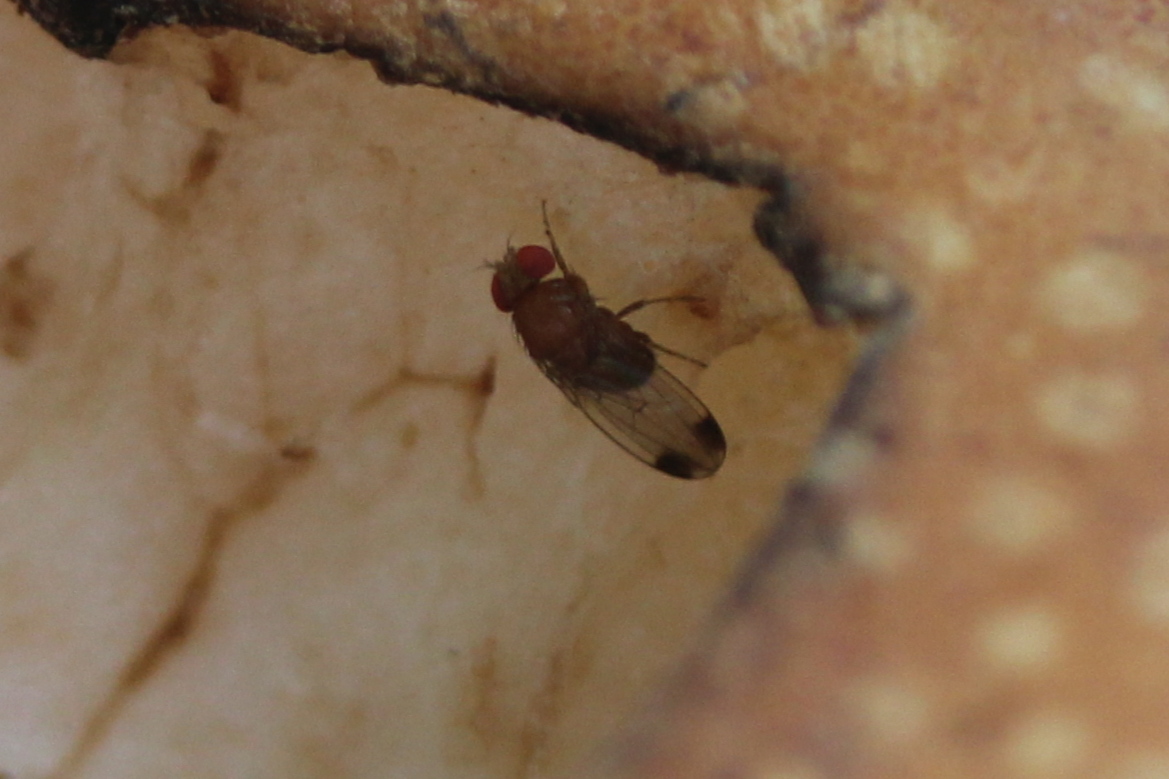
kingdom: Animalia
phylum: Arthropoda
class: Insecta
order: Diptera
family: Drosophilidae
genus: Drosophila
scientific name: Drosophila suzukii
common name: Spotted-wing drosophila
